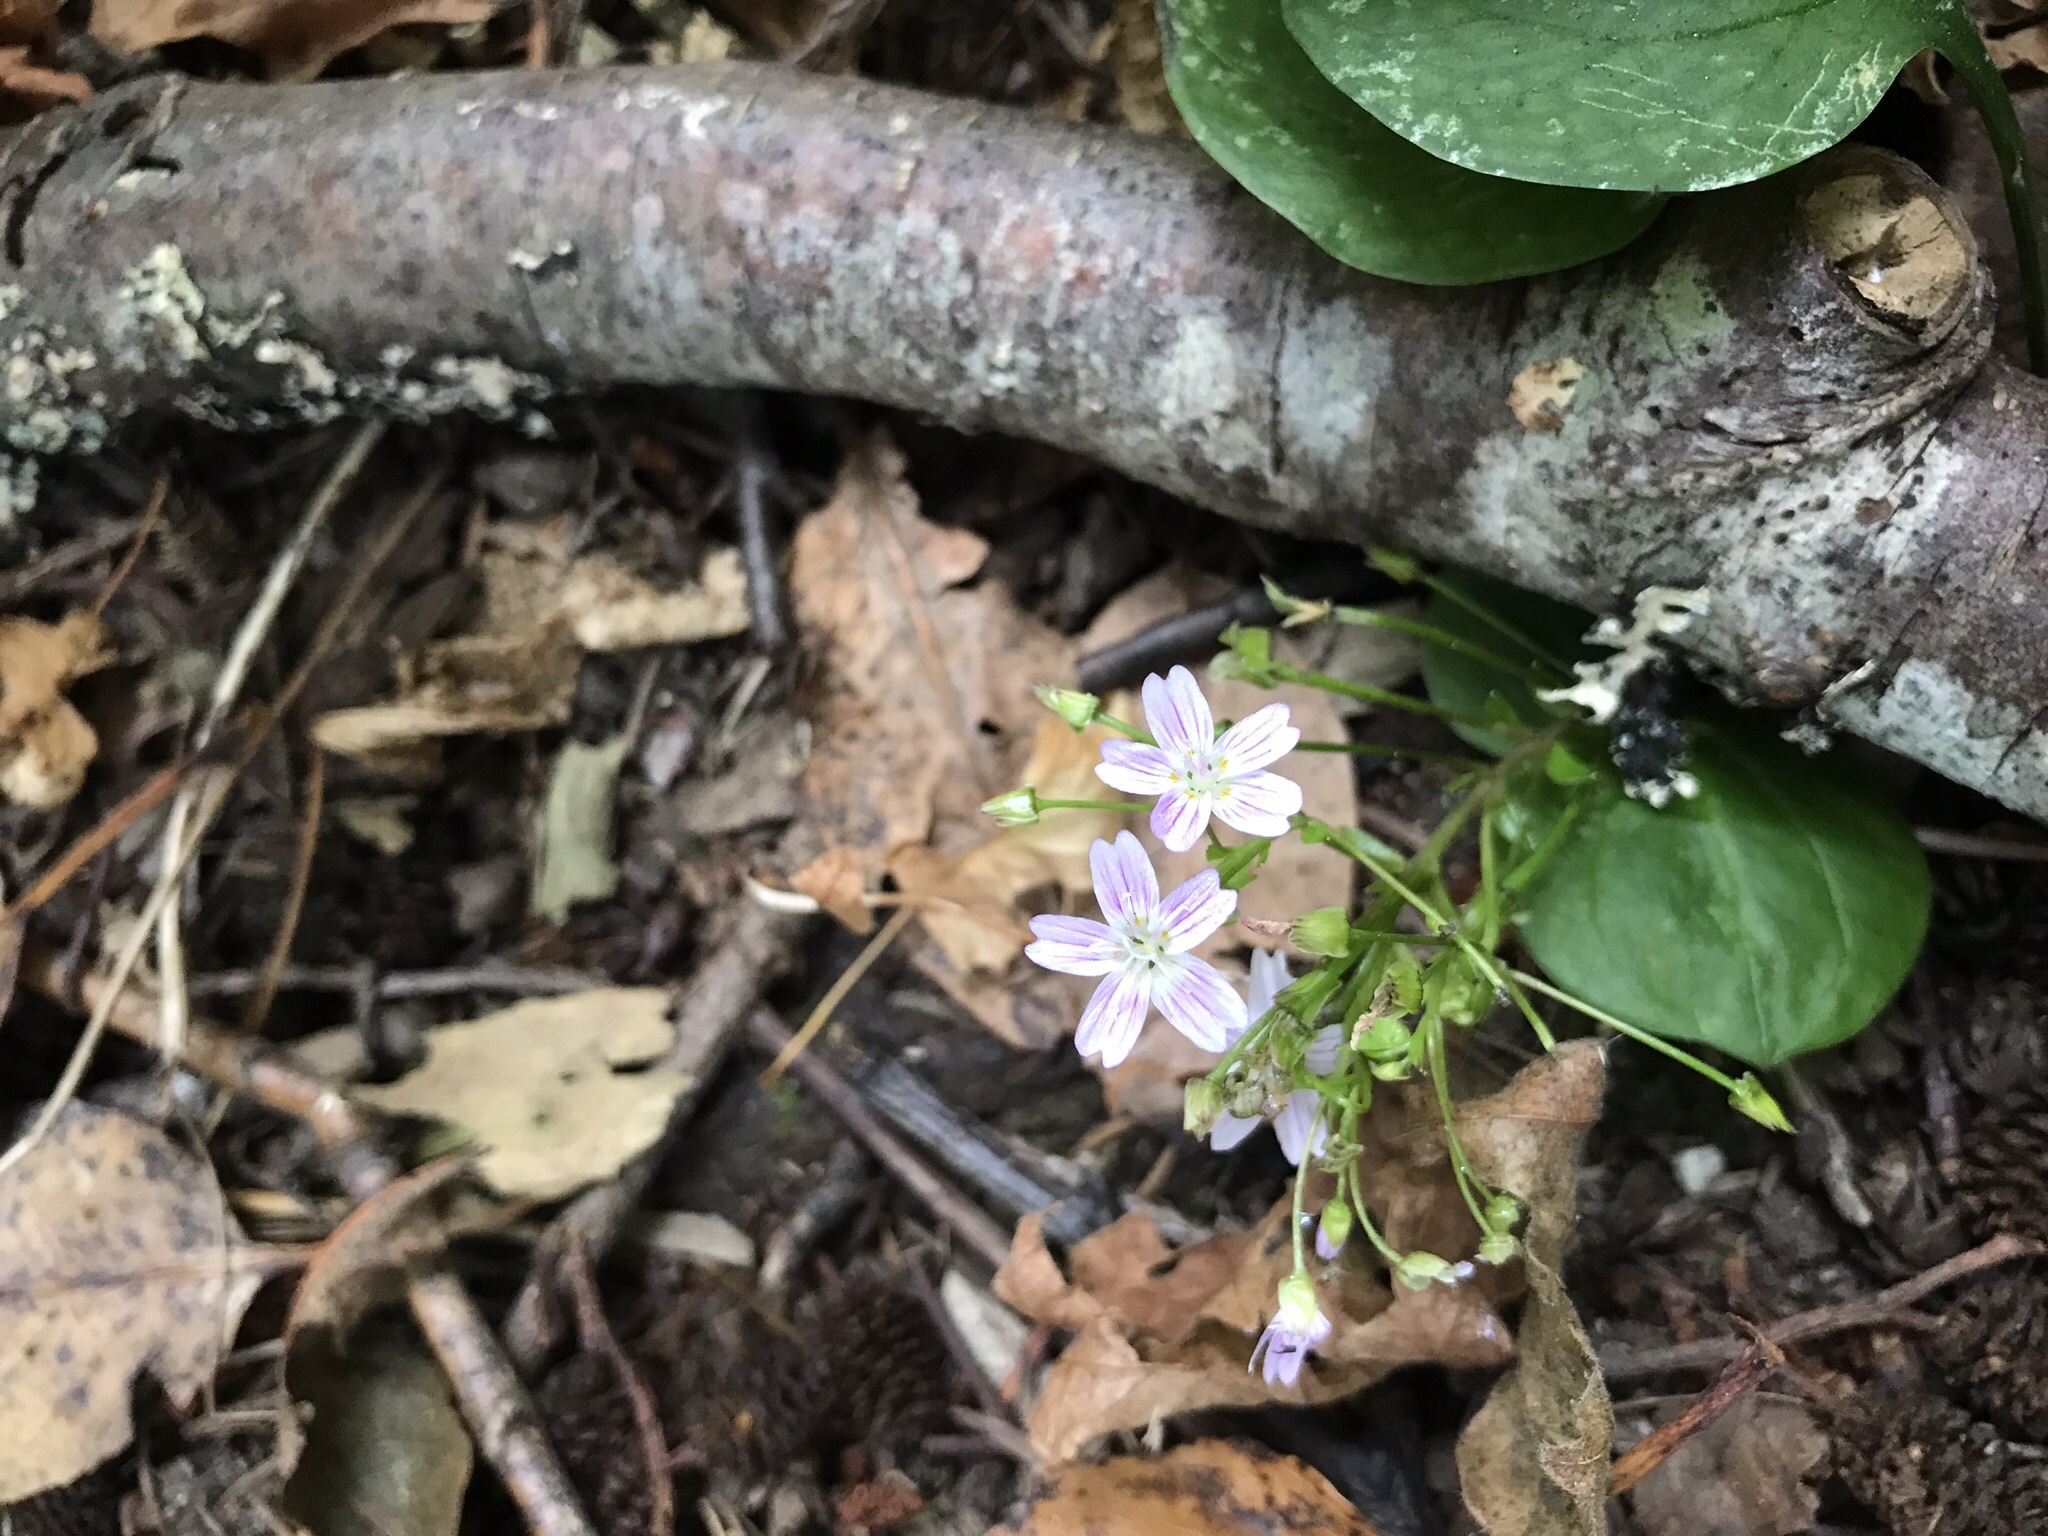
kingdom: Plantae
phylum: Tracheophyta
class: Magnoliopsida
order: Caryophyllales
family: Montiaceae
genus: Claytonia
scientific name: Claytonia sibirica
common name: Pink purslane
